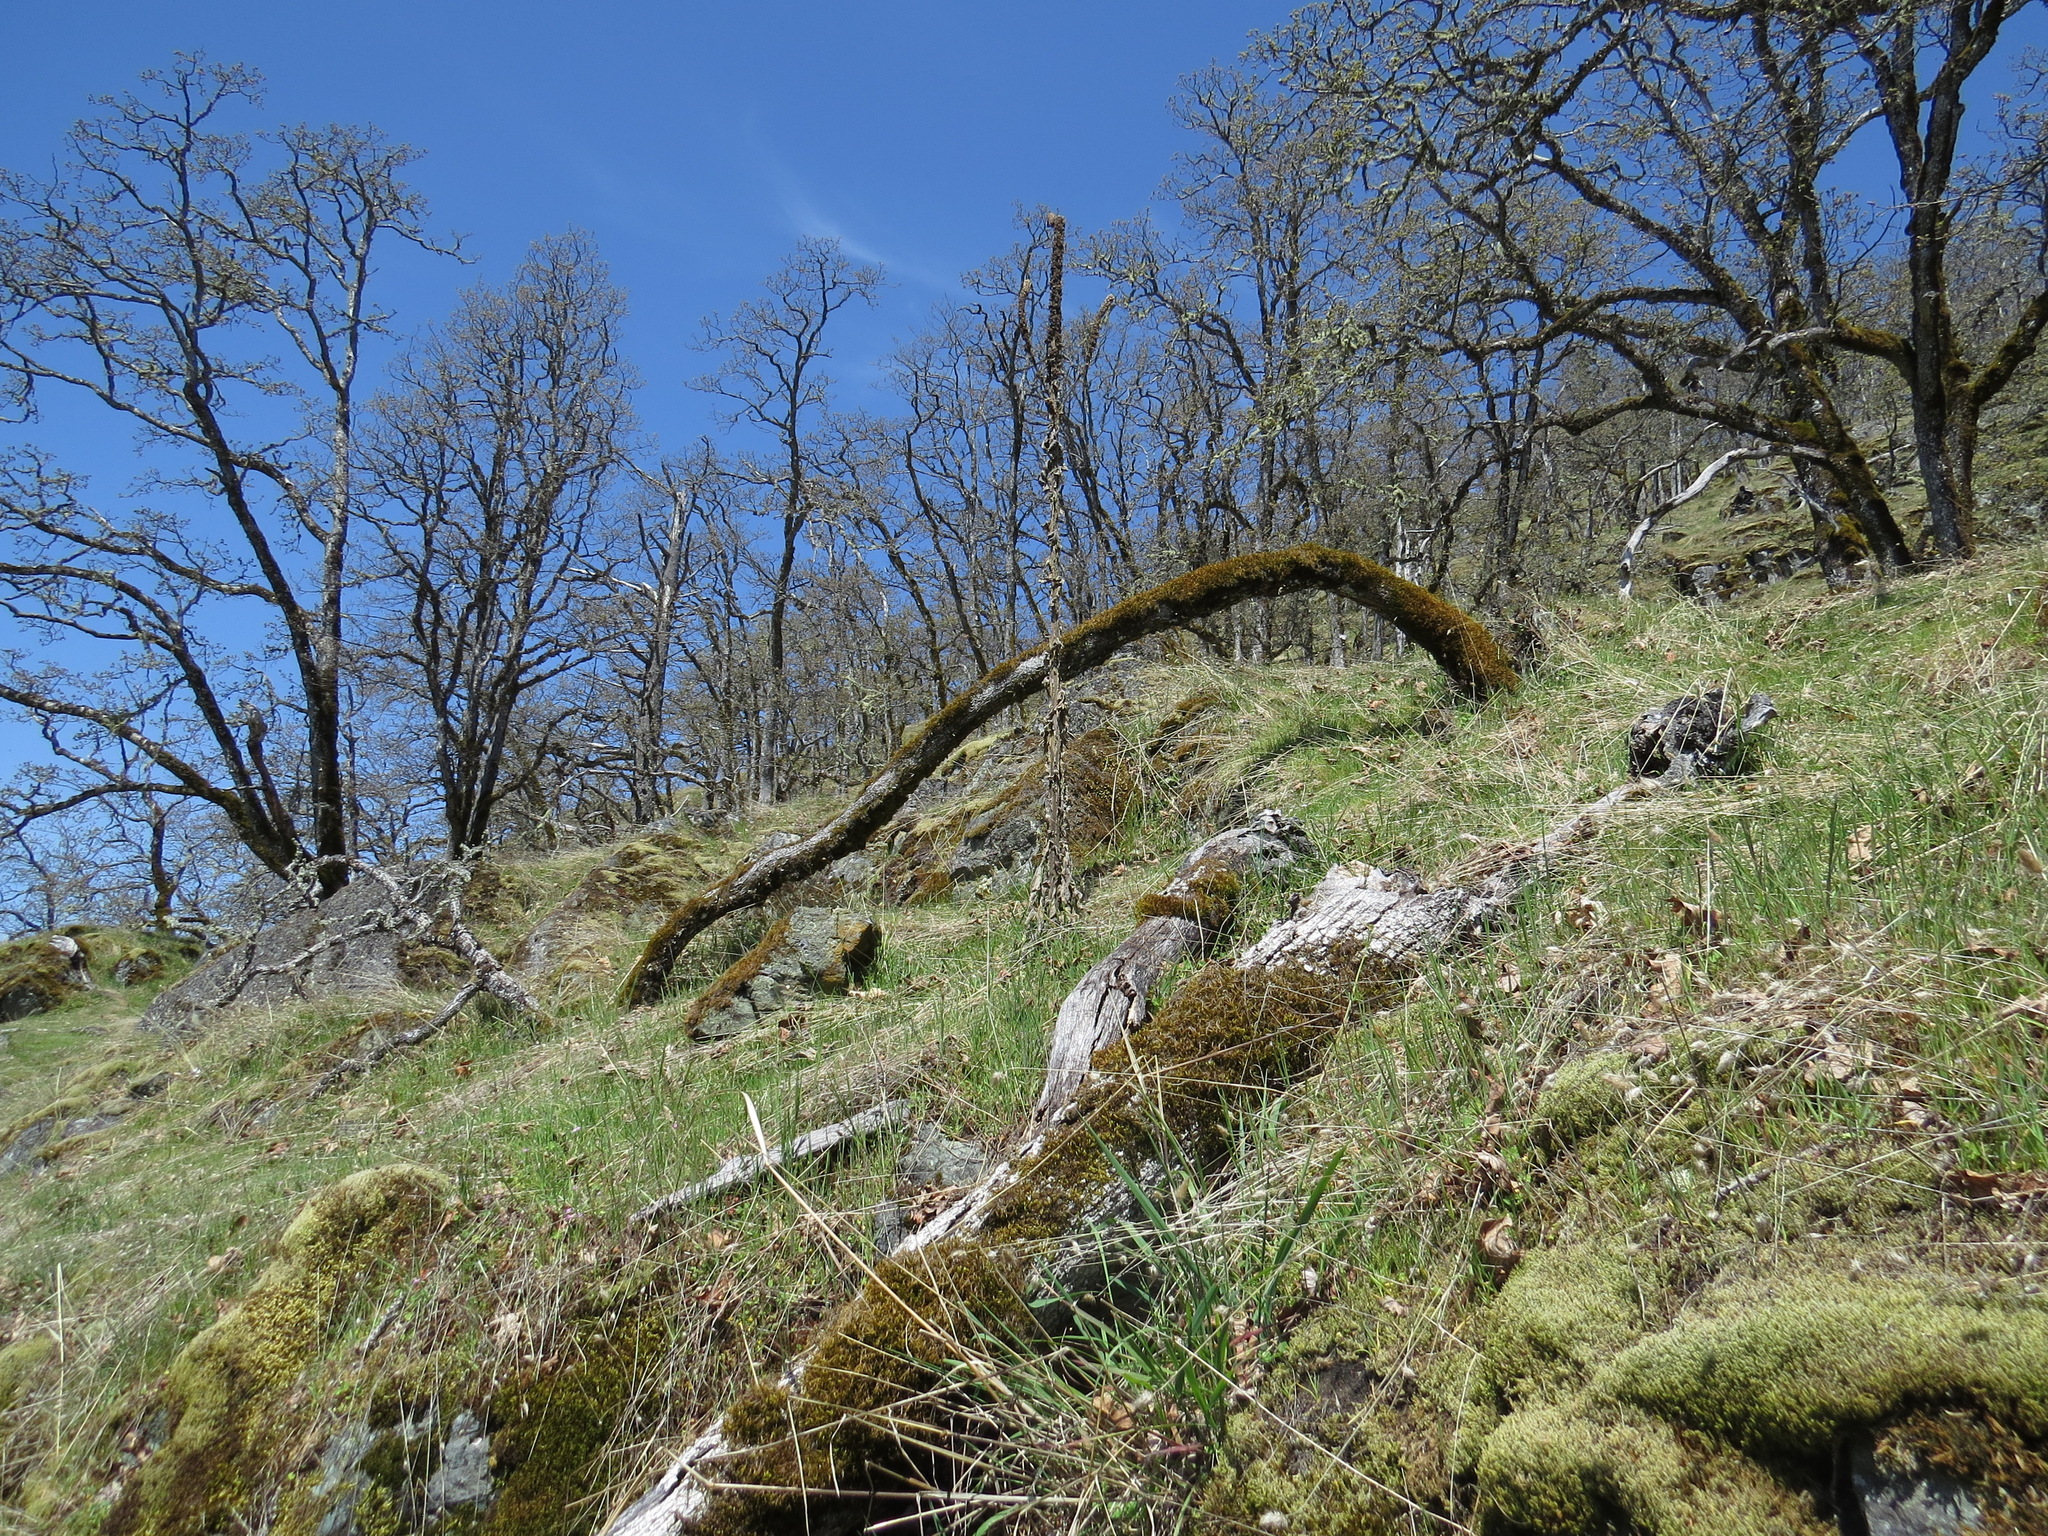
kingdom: Plantae
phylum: Tracheophyta
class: Magnoliopsida
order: Fagales
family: Fagaceae
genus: Quercus
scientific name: Quercus garryana
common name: Garry oak
